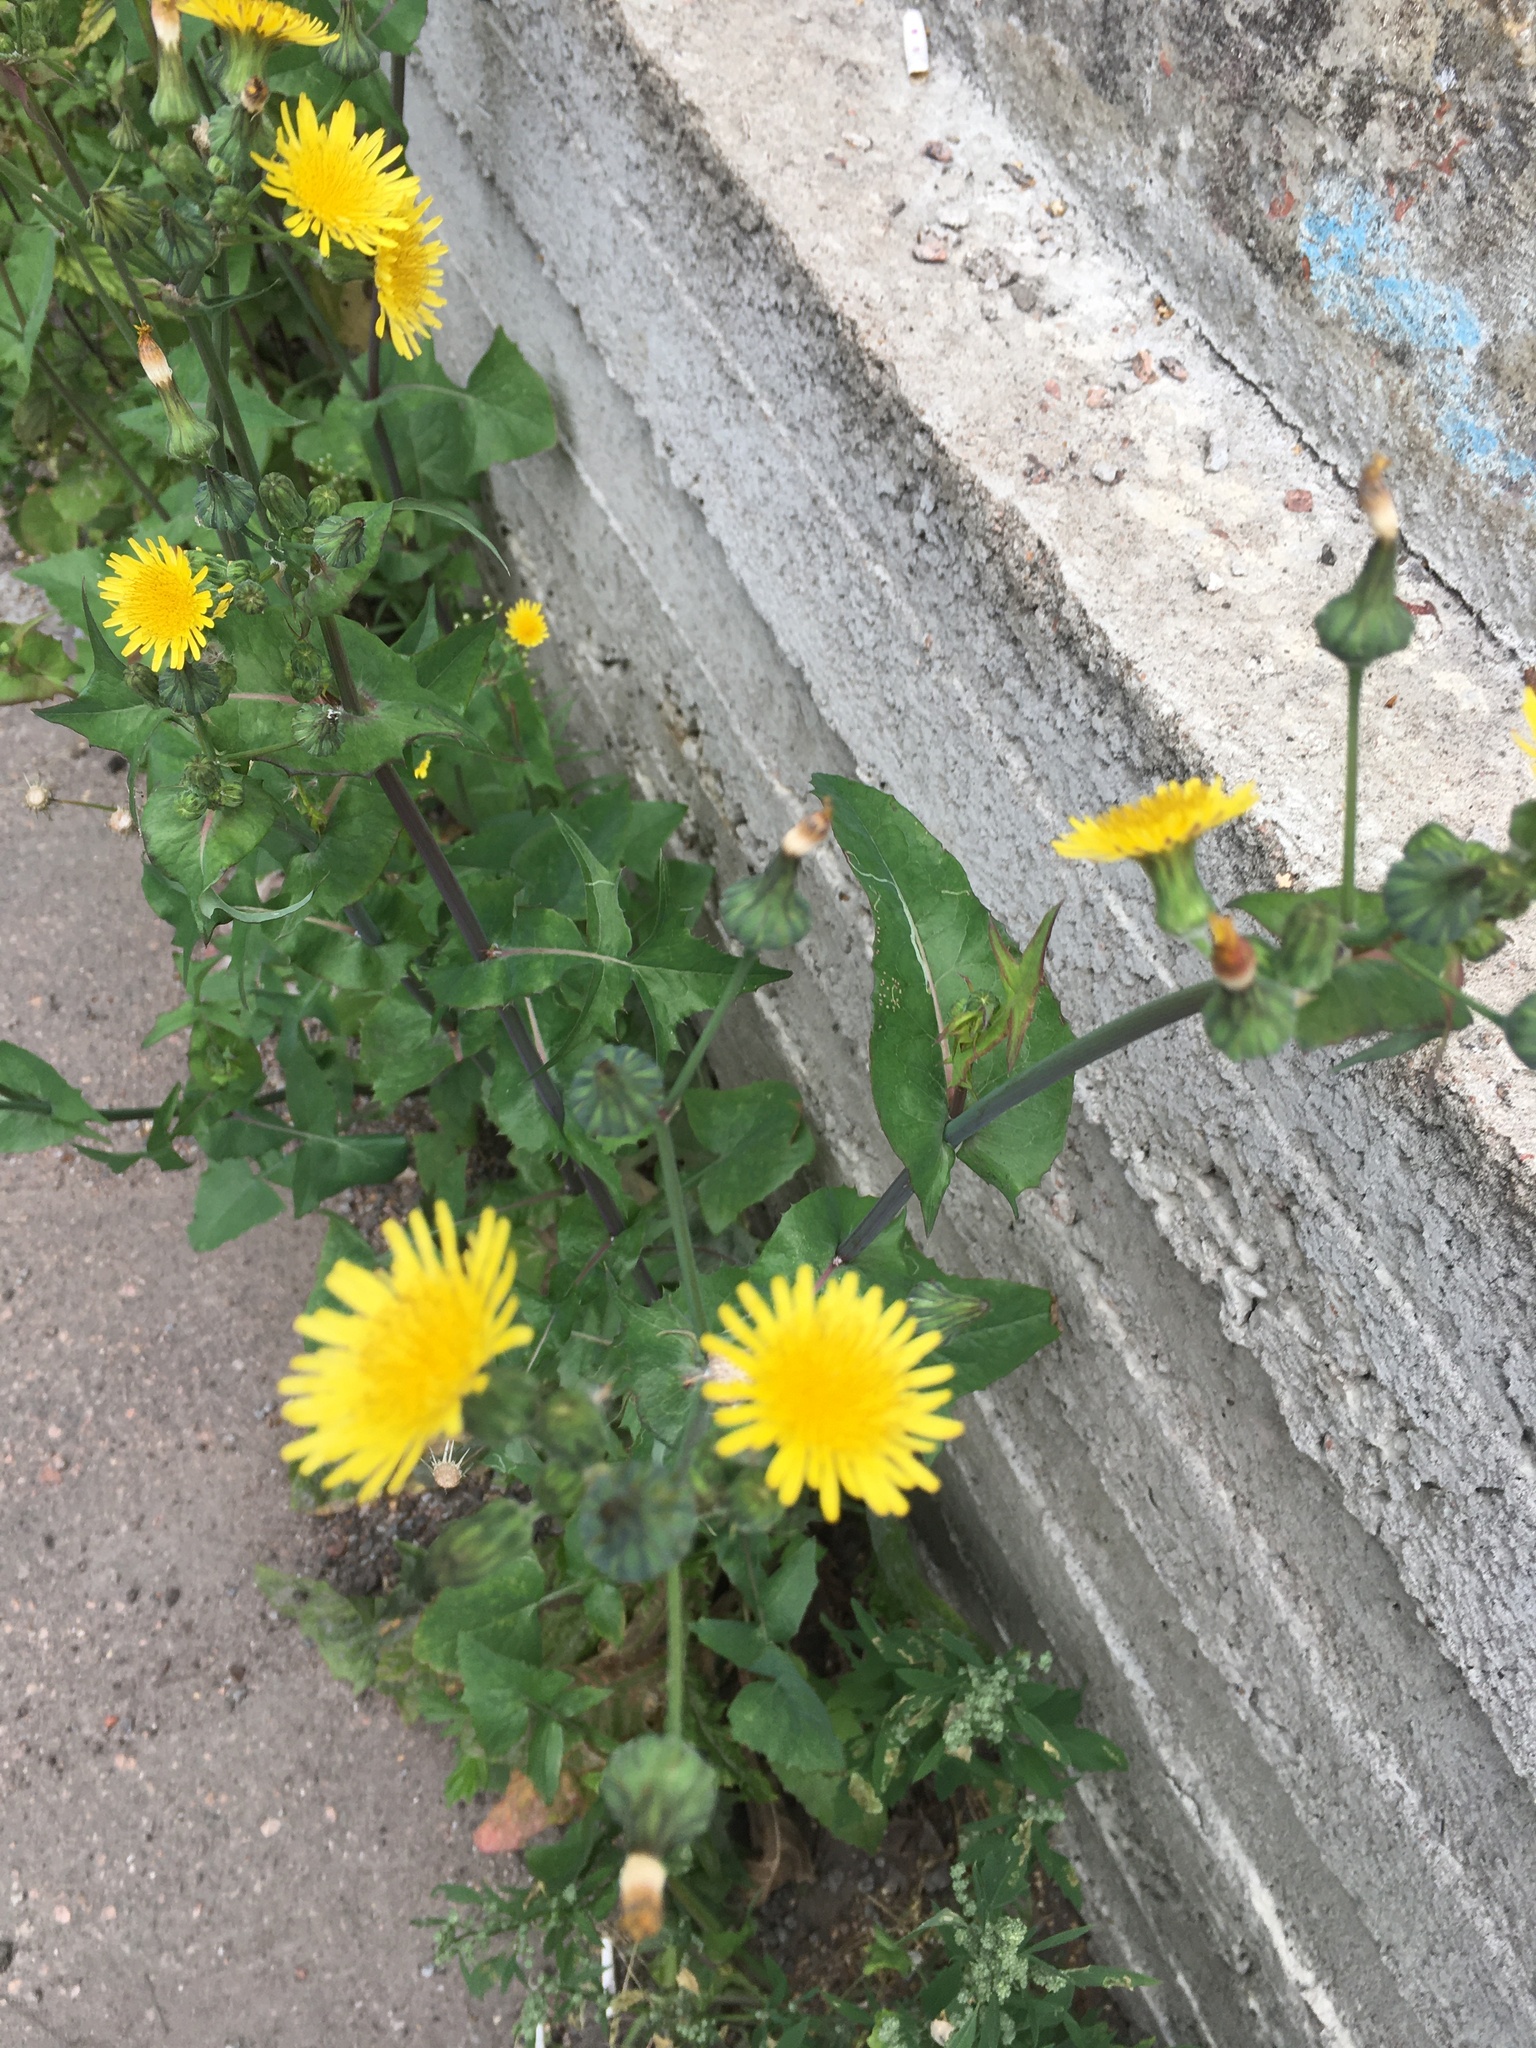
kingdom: Plantae
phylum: Tracheophyta
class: Magnoliopsida
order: Asterales
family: Asteraceae
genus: Sonchus
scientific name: Sonchus oleraceus
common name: Common sowthistle
